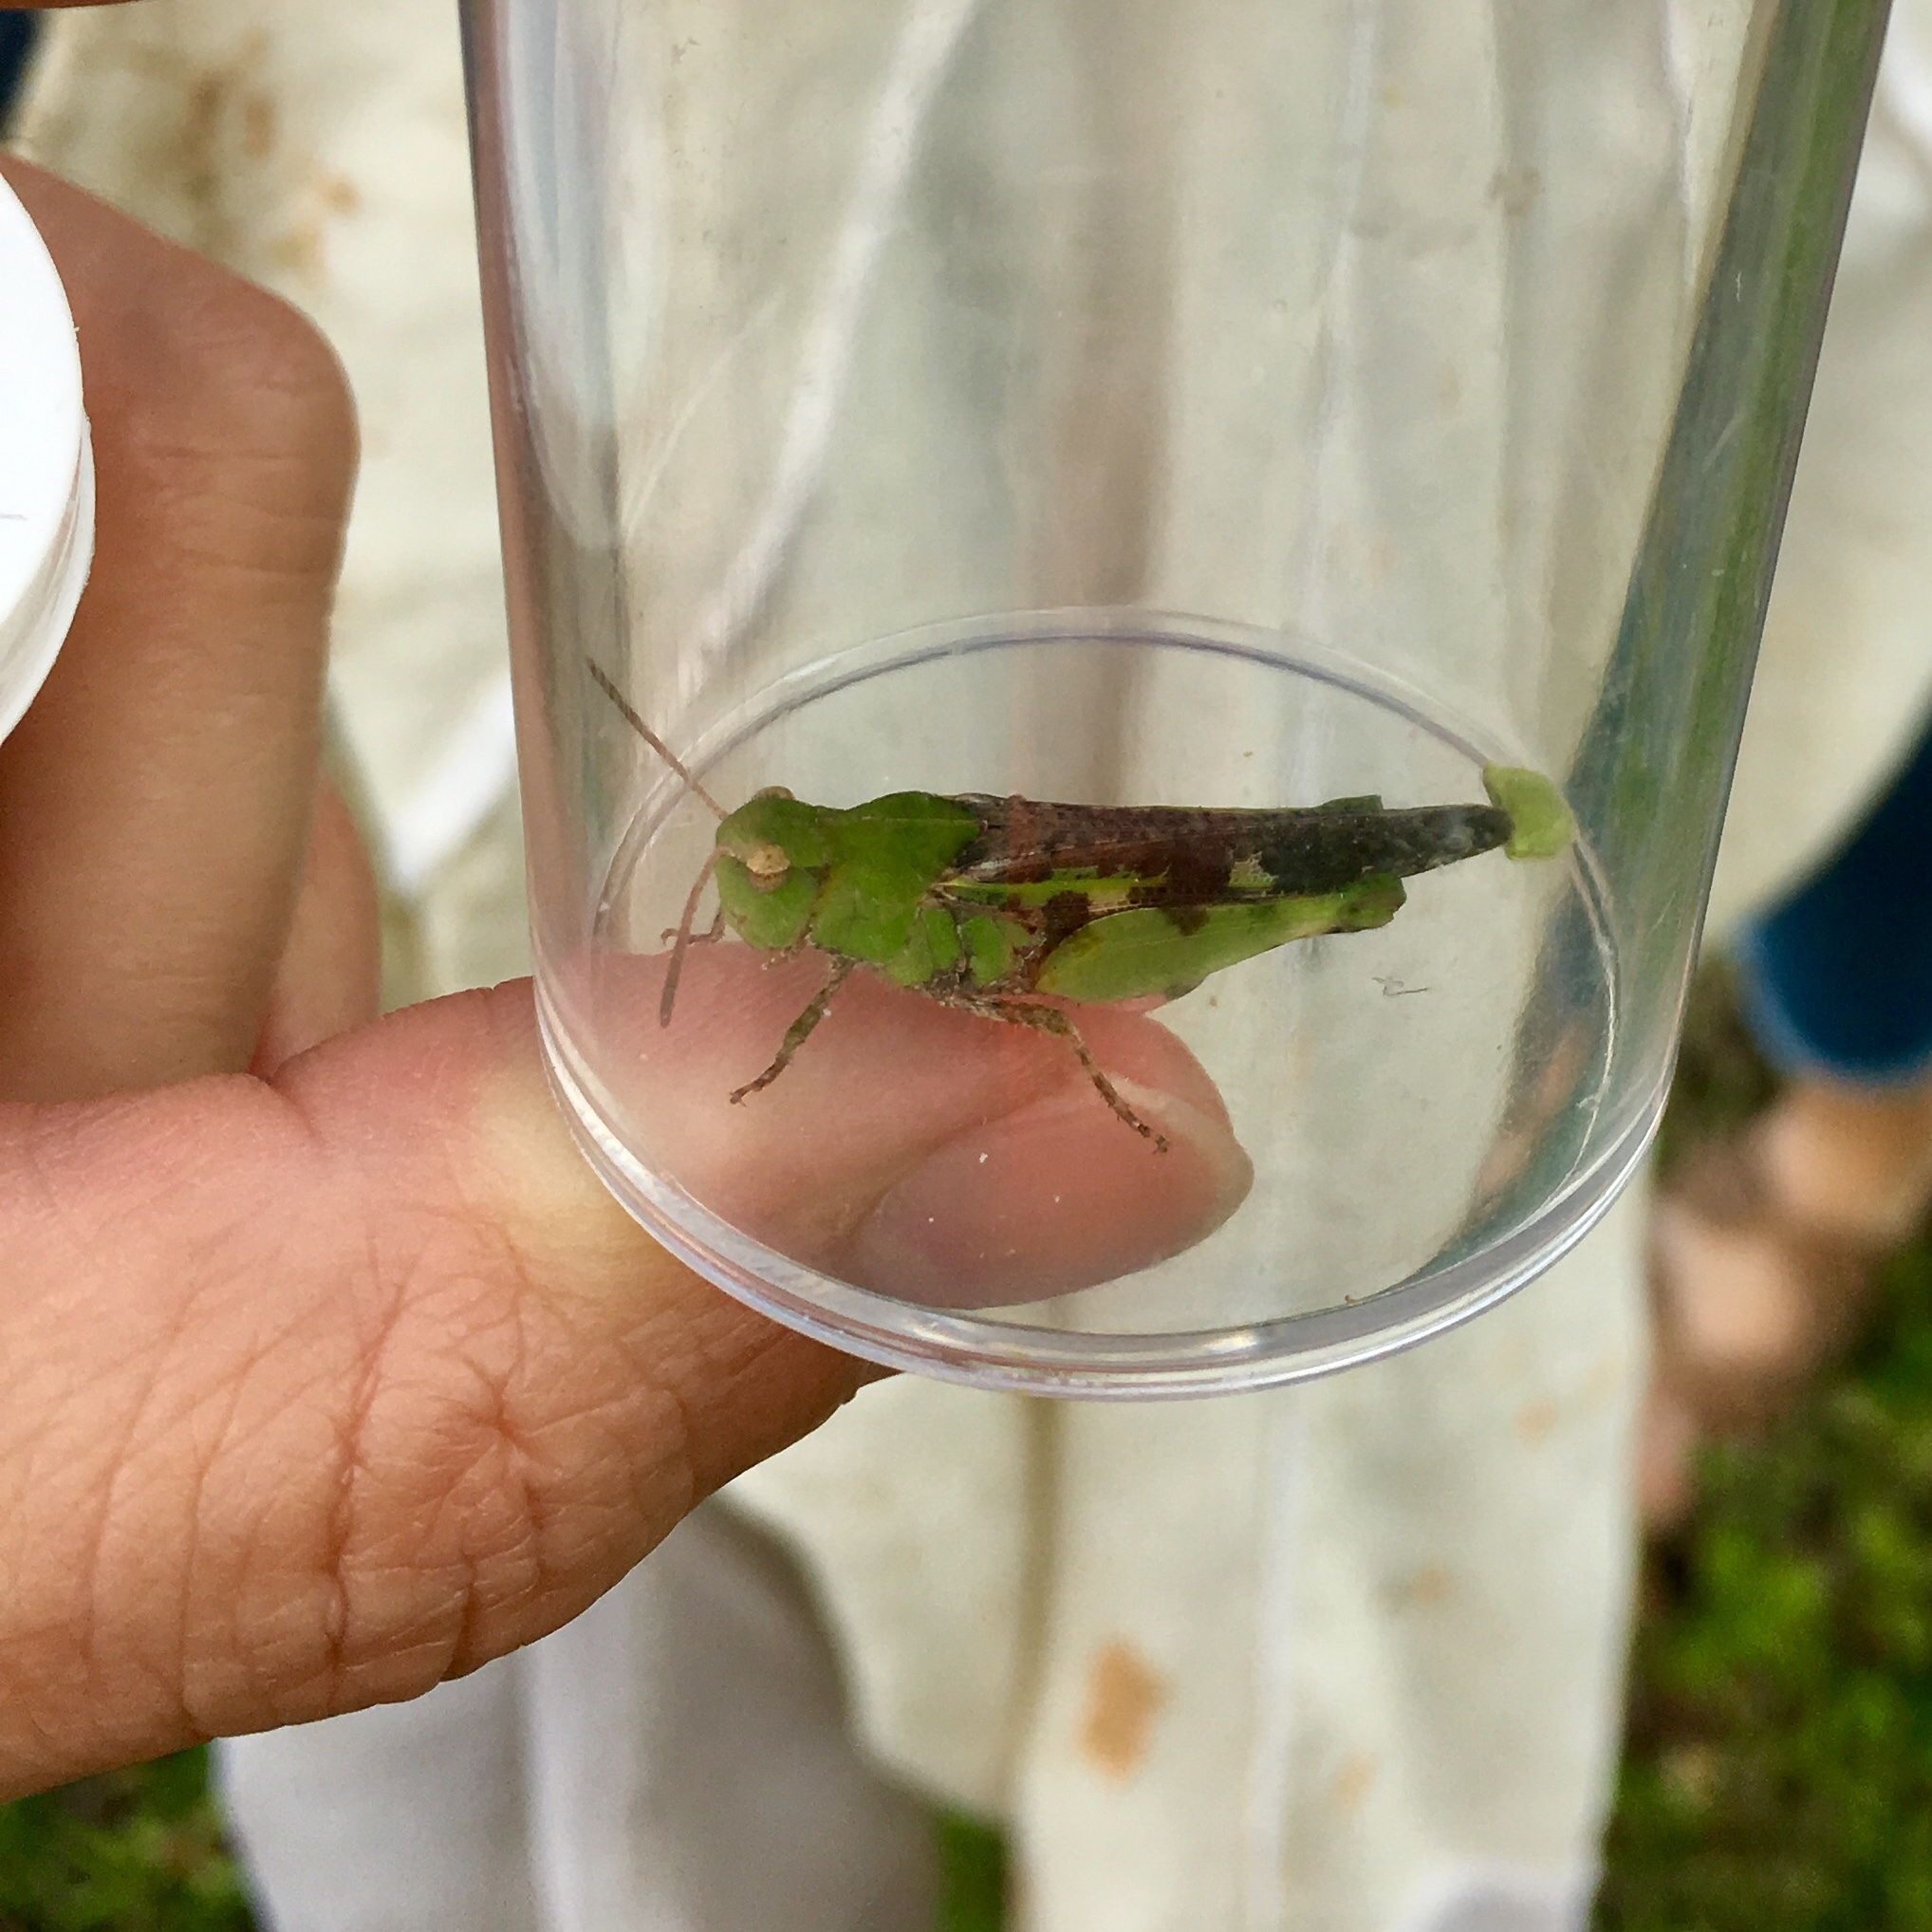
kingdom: Animalia
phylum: Arthropoda
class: Insecta
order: Orthoptera
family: Acrididae
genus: Chortophaga
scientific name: Chortophaga australior
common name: Southern green-striped grasshopper
